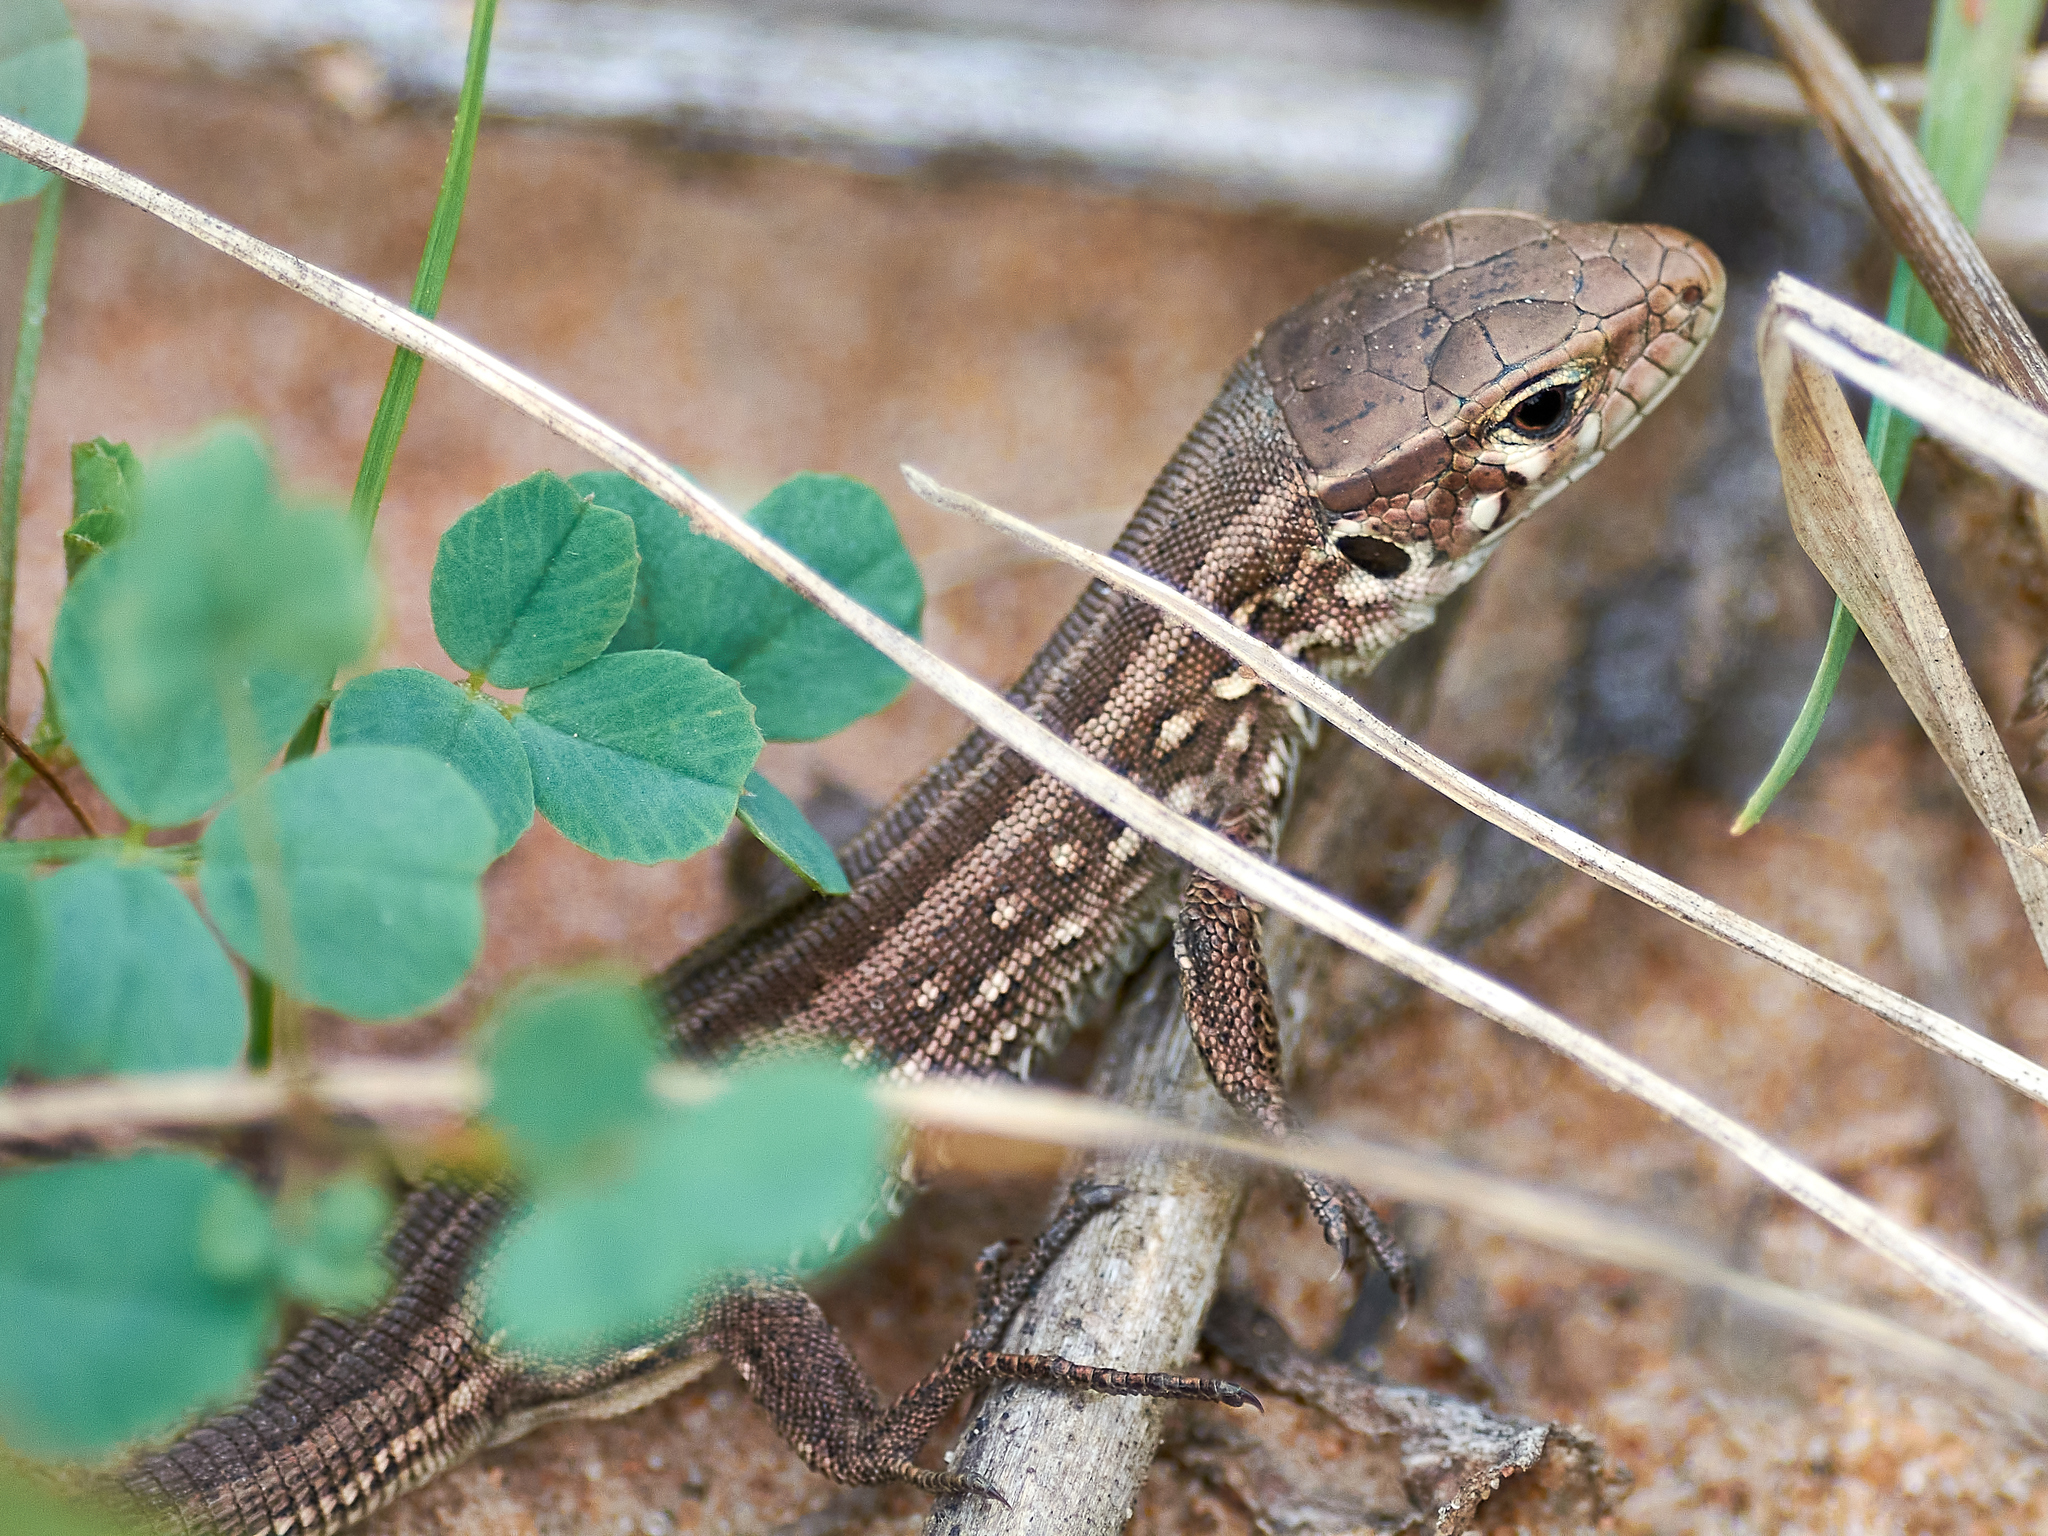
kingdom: Animalia
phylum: Chordata
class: Squamata
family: Lacertidae
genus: Lacerta
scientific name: Lacerta agilis
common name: Sand lizard
